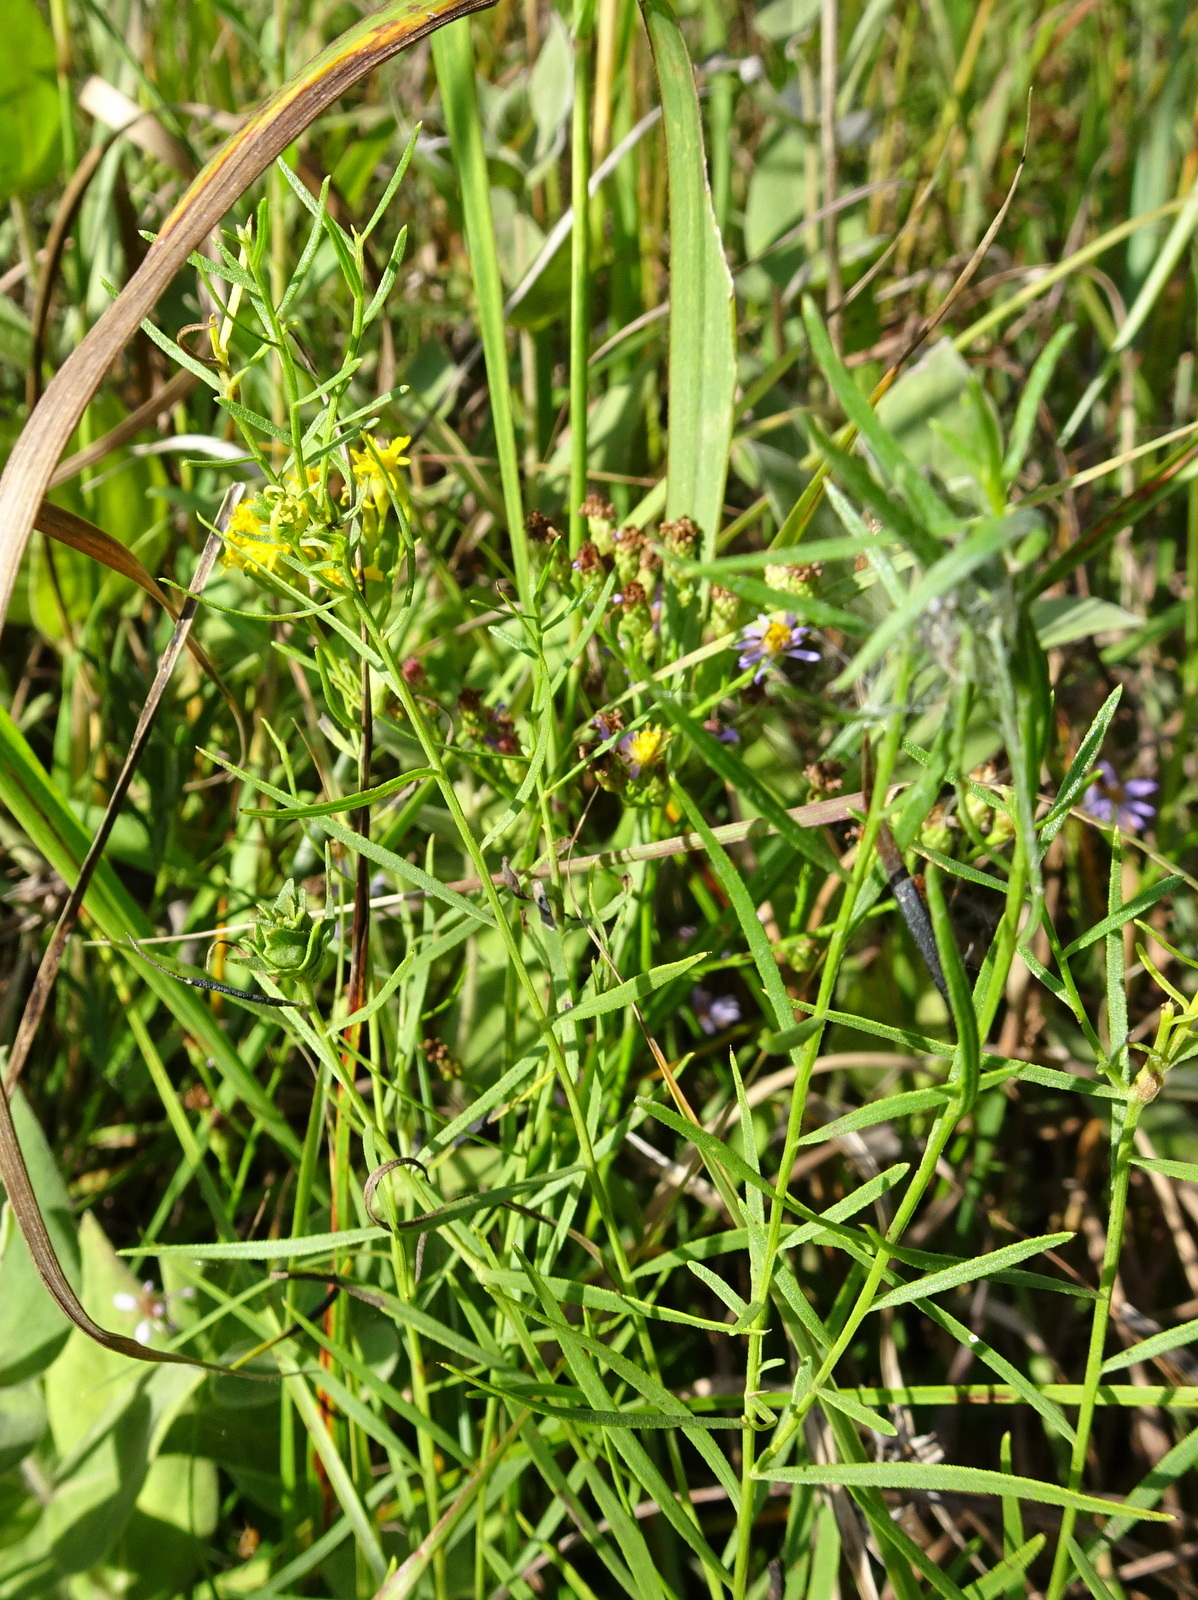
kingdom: Plantae
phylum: Tracheophyta
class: Magnoliopsida
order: Asterales
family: Asteraceae
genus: Euthamia
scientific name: Euthamia gymnospermoides
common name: Great plains goldentop
